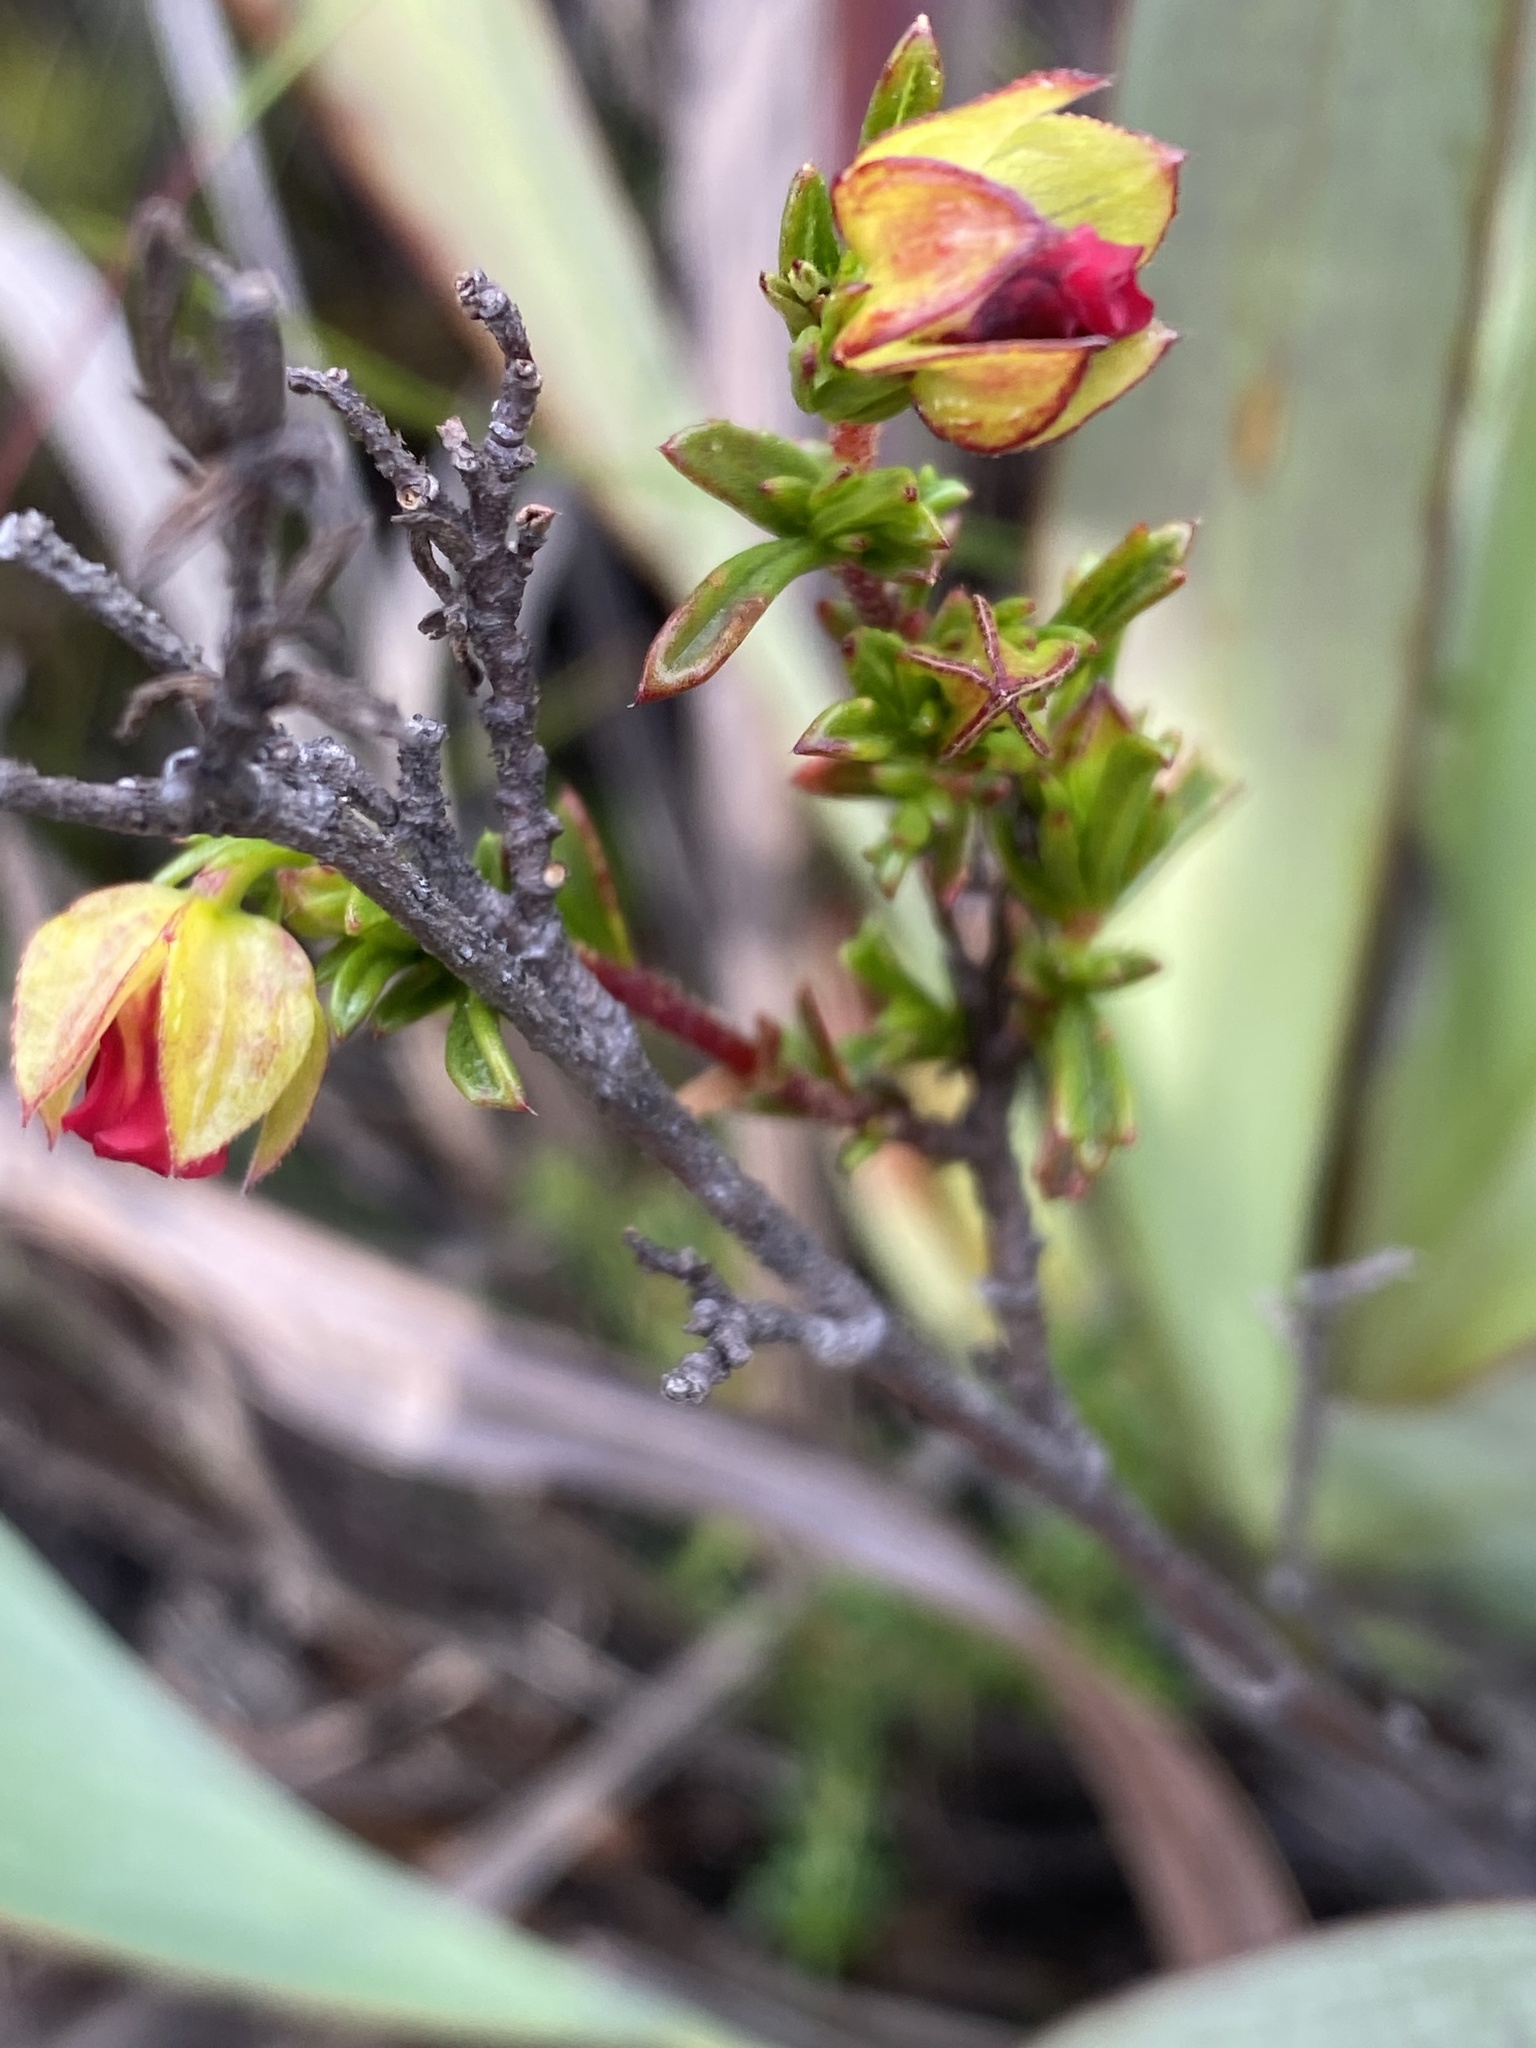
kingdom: Plantae
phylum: Tracheophyta
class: Magnoliopsida
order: Malvales
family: Malvaceae
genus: Hermannia
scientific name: Hermannia angularis
